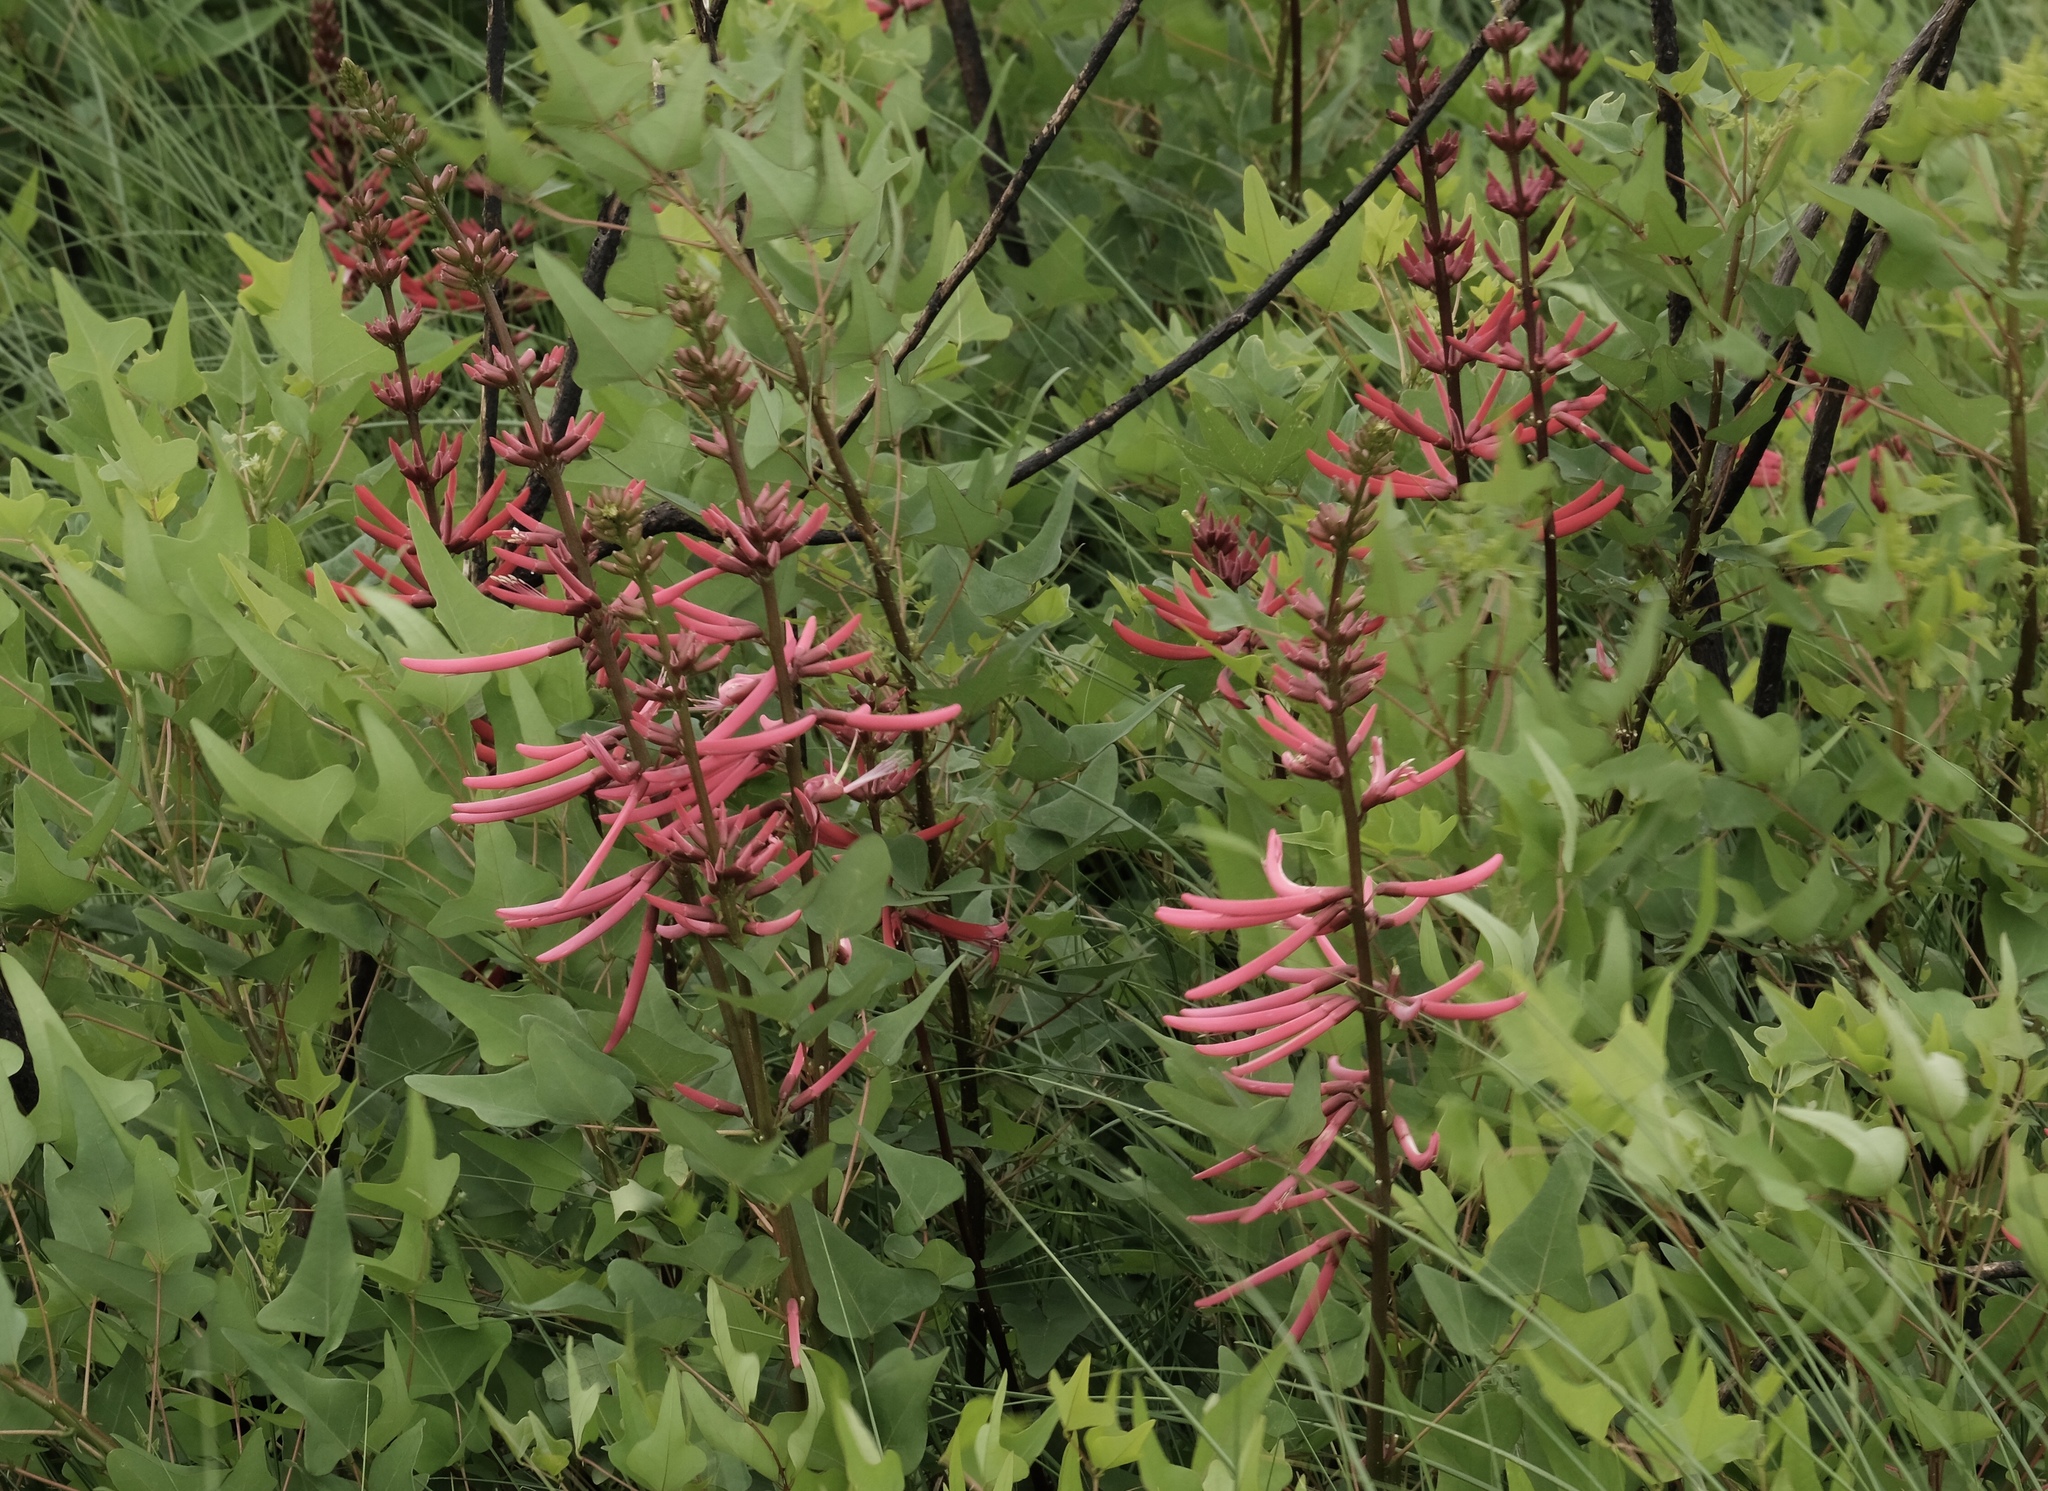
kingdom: Plantae
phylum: Tracheophyta
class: Magnoliopsida
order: Fabales
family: Fabaceae
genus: Erythrina
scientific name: Erythrina herbacea
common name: Coral-bean
